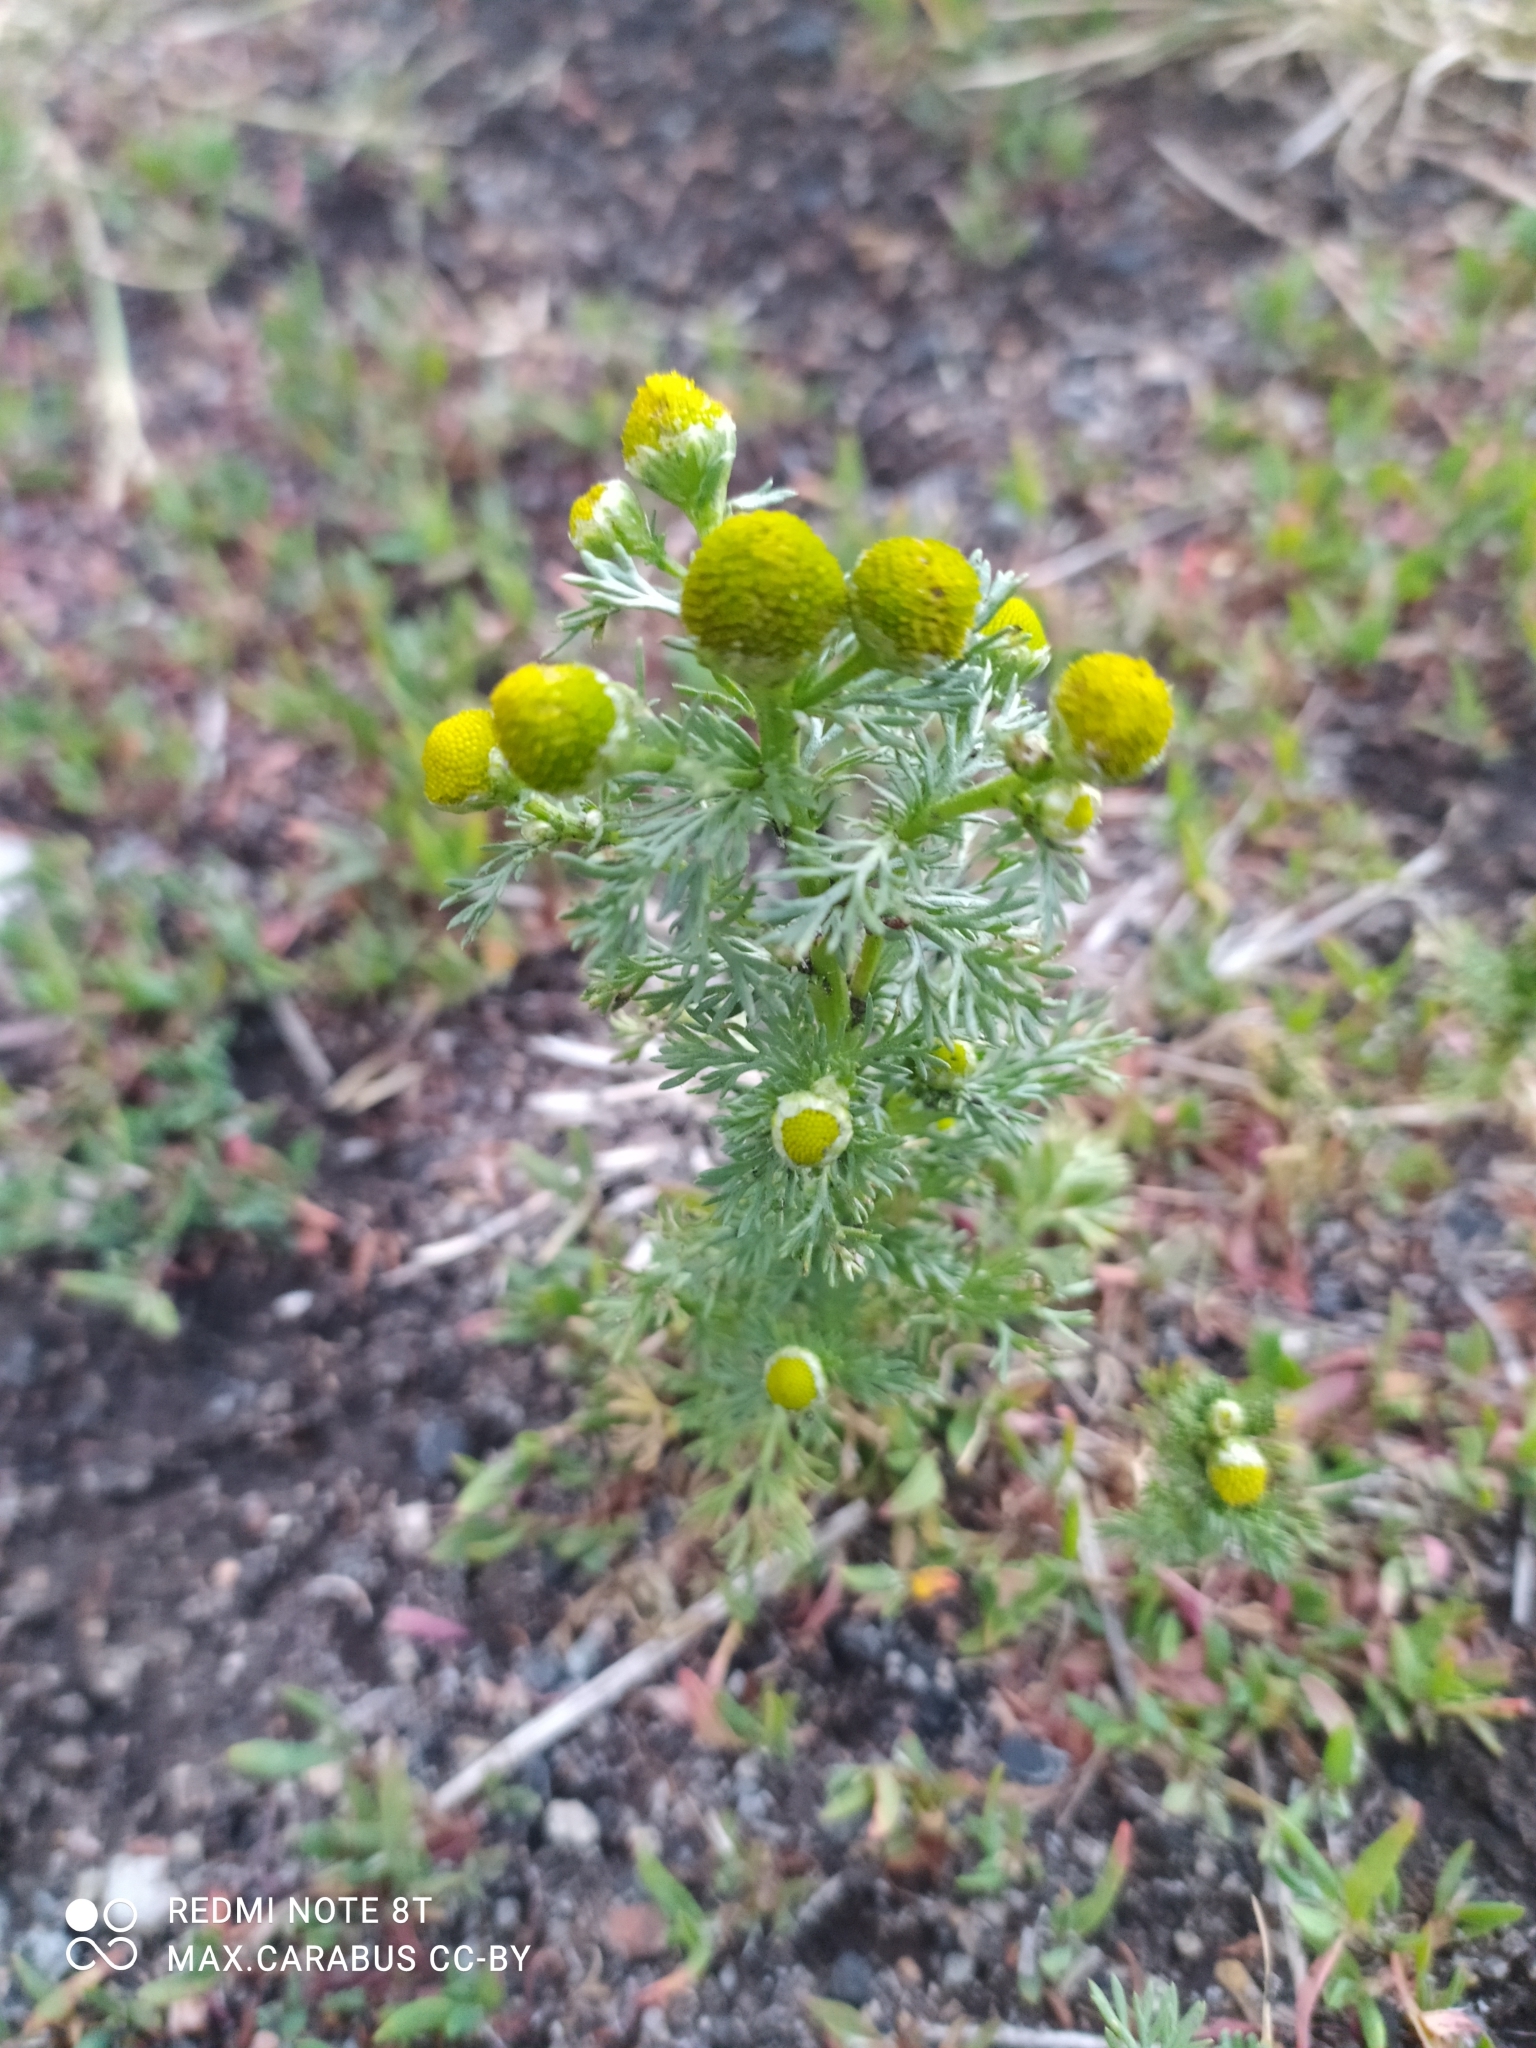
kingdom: Plantae
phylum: Tracheophyta
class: Magnoliopsida
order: Asterales
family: Asteraceae
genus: Matricaria
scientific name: Matricaria discoidea
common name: Disc mayweed
